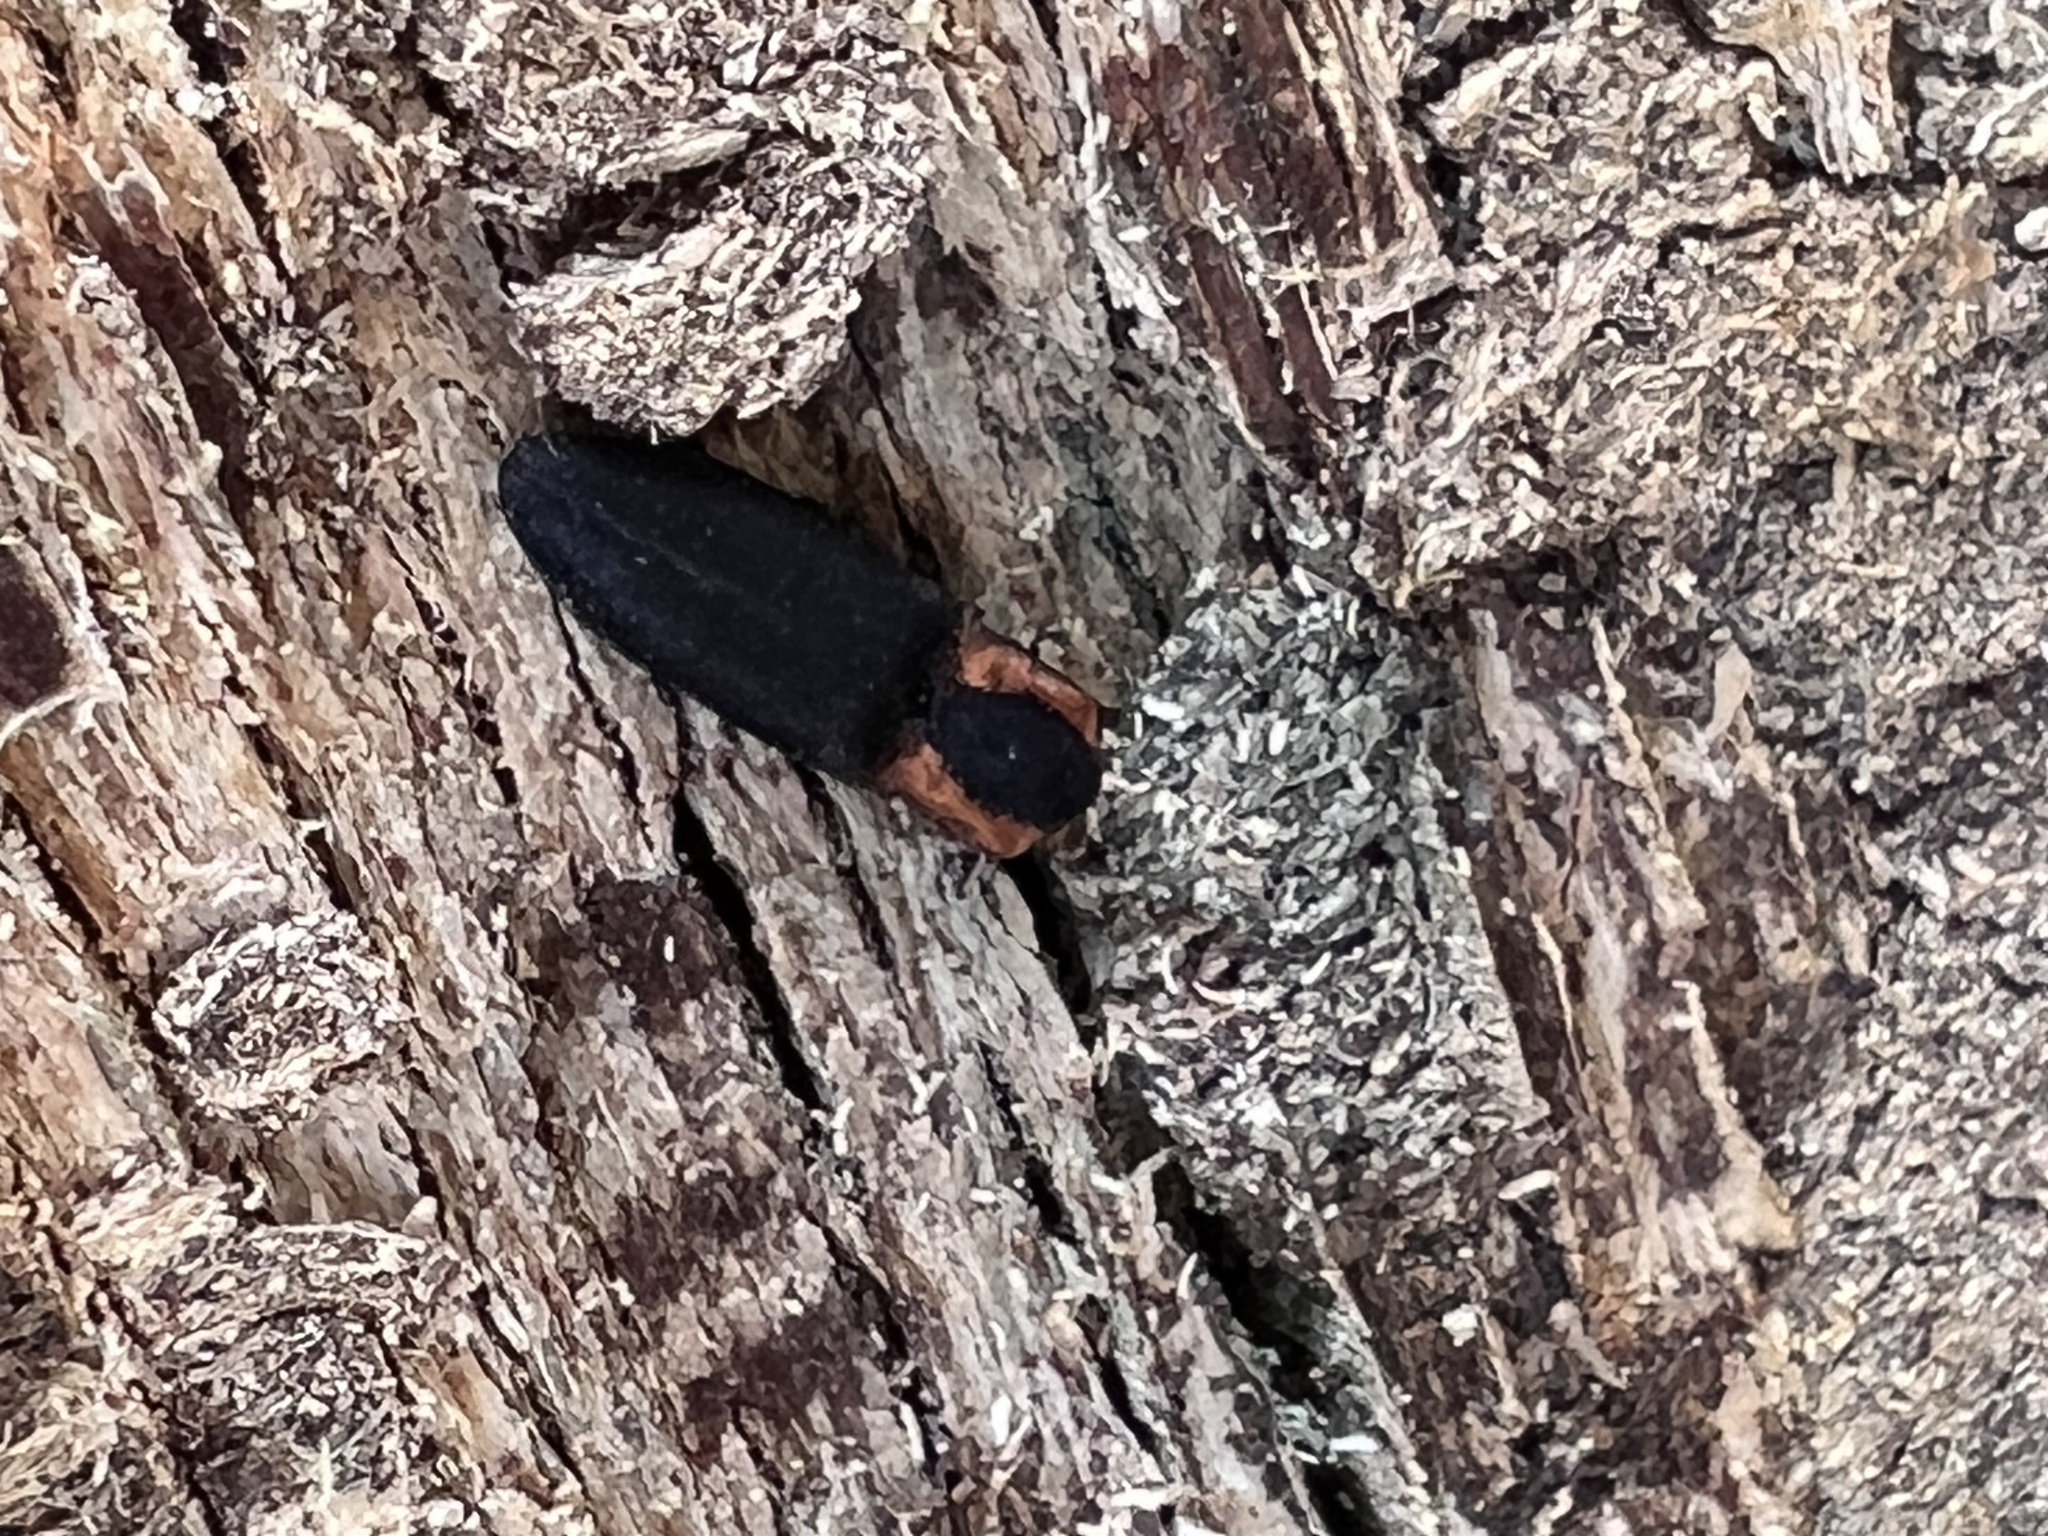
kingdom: Animalia
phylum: Arthropoda
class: Insecta
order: Coleoptera
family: Elateridae
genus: Lacon
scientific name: Lacon discoideus
